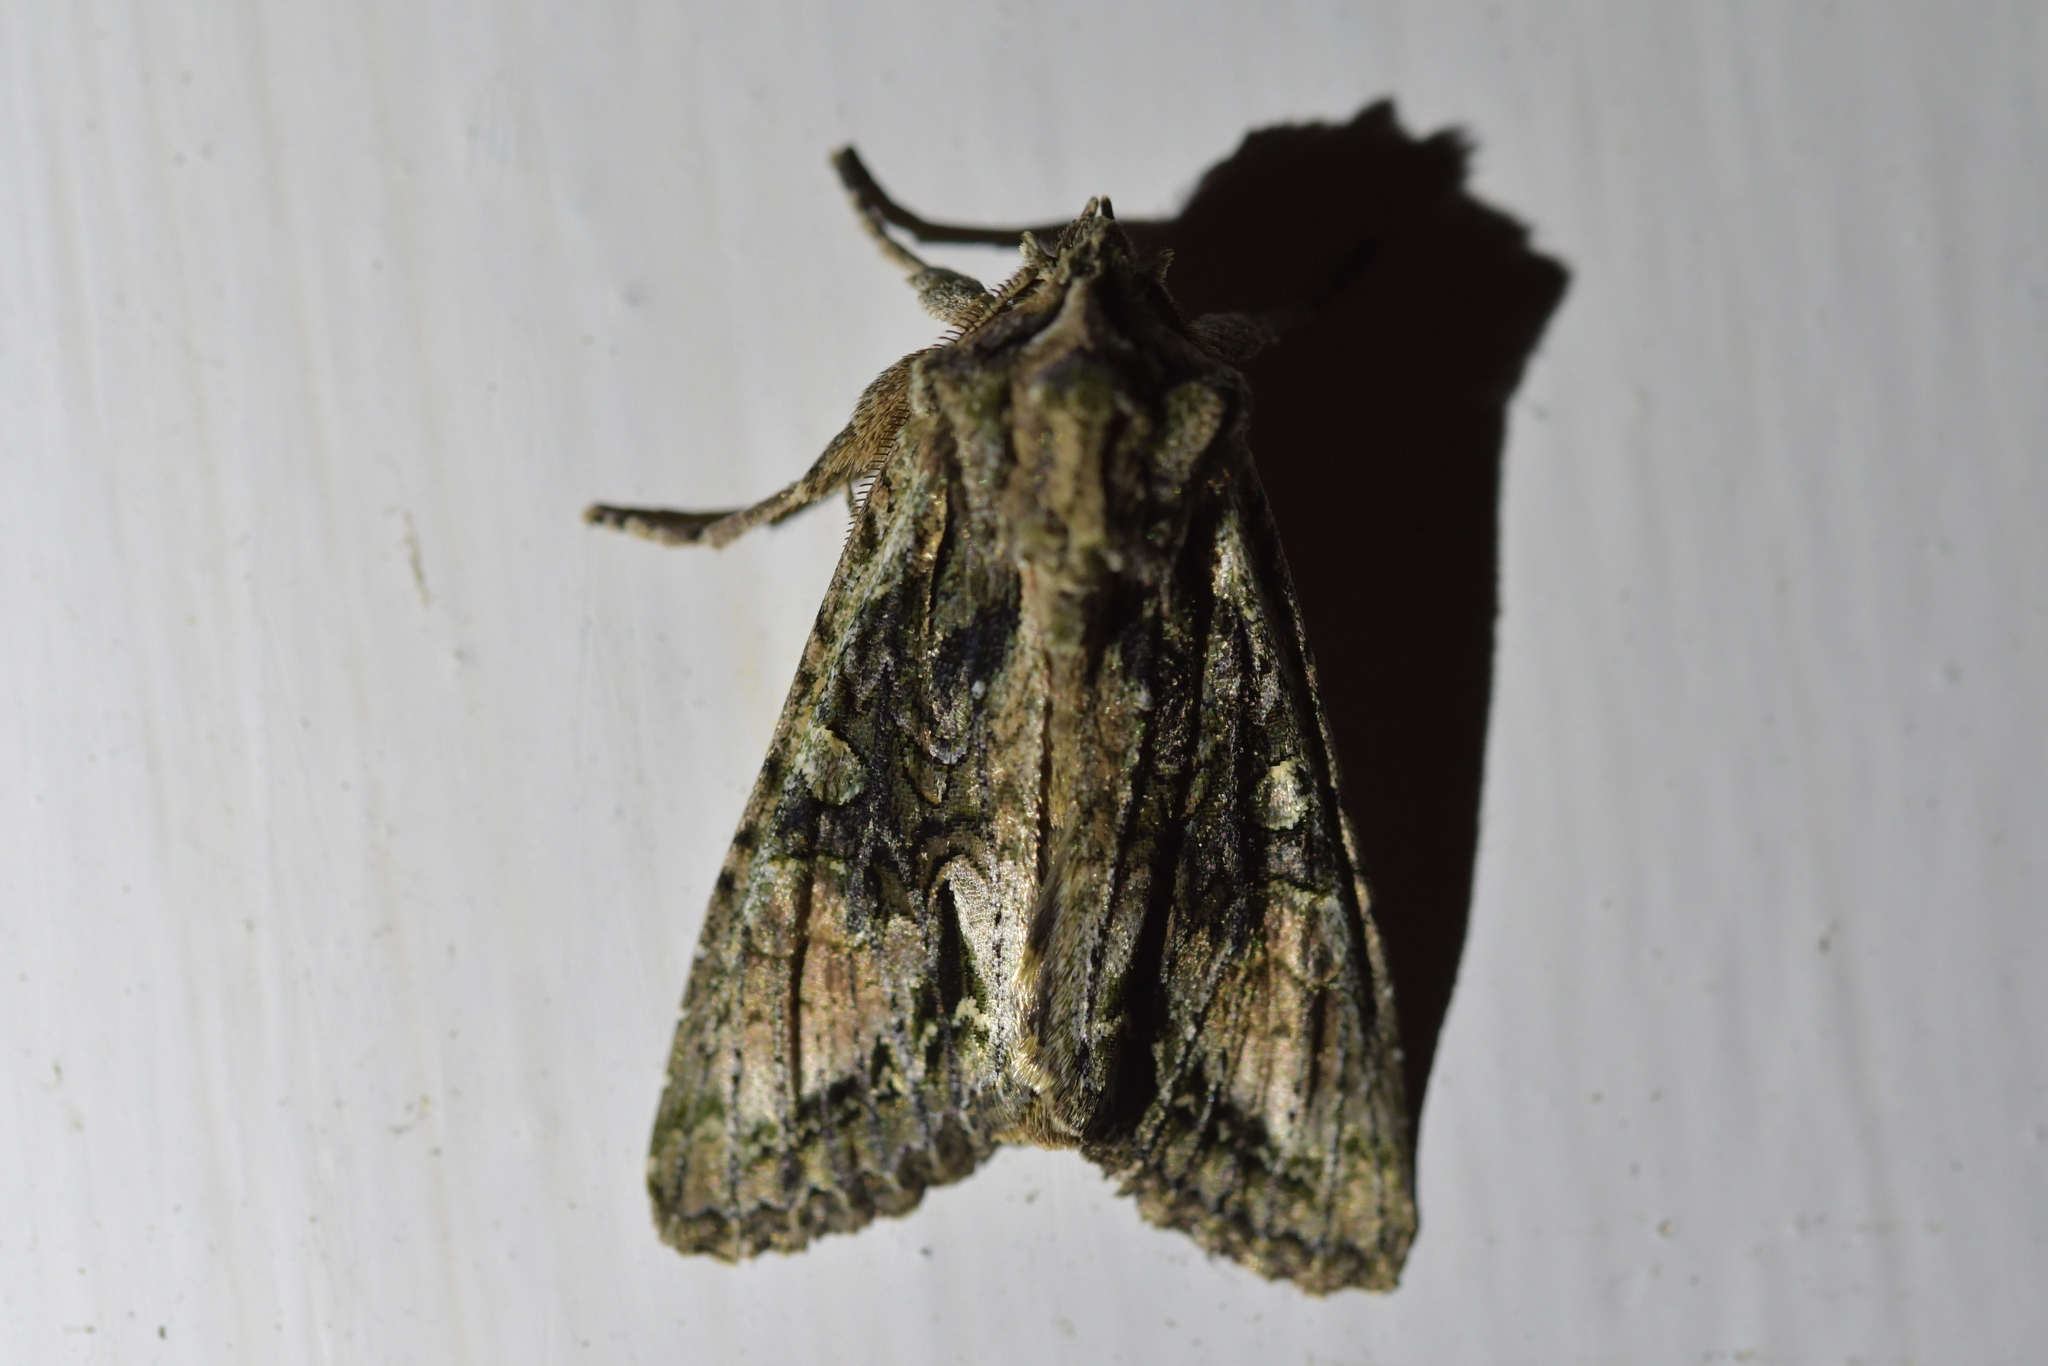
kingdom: Animalia
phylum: Arthropoda
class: Insecta
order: Lepidoptera
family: Noctuidae
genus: Ichneutica
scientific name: Ichneutica mutans
